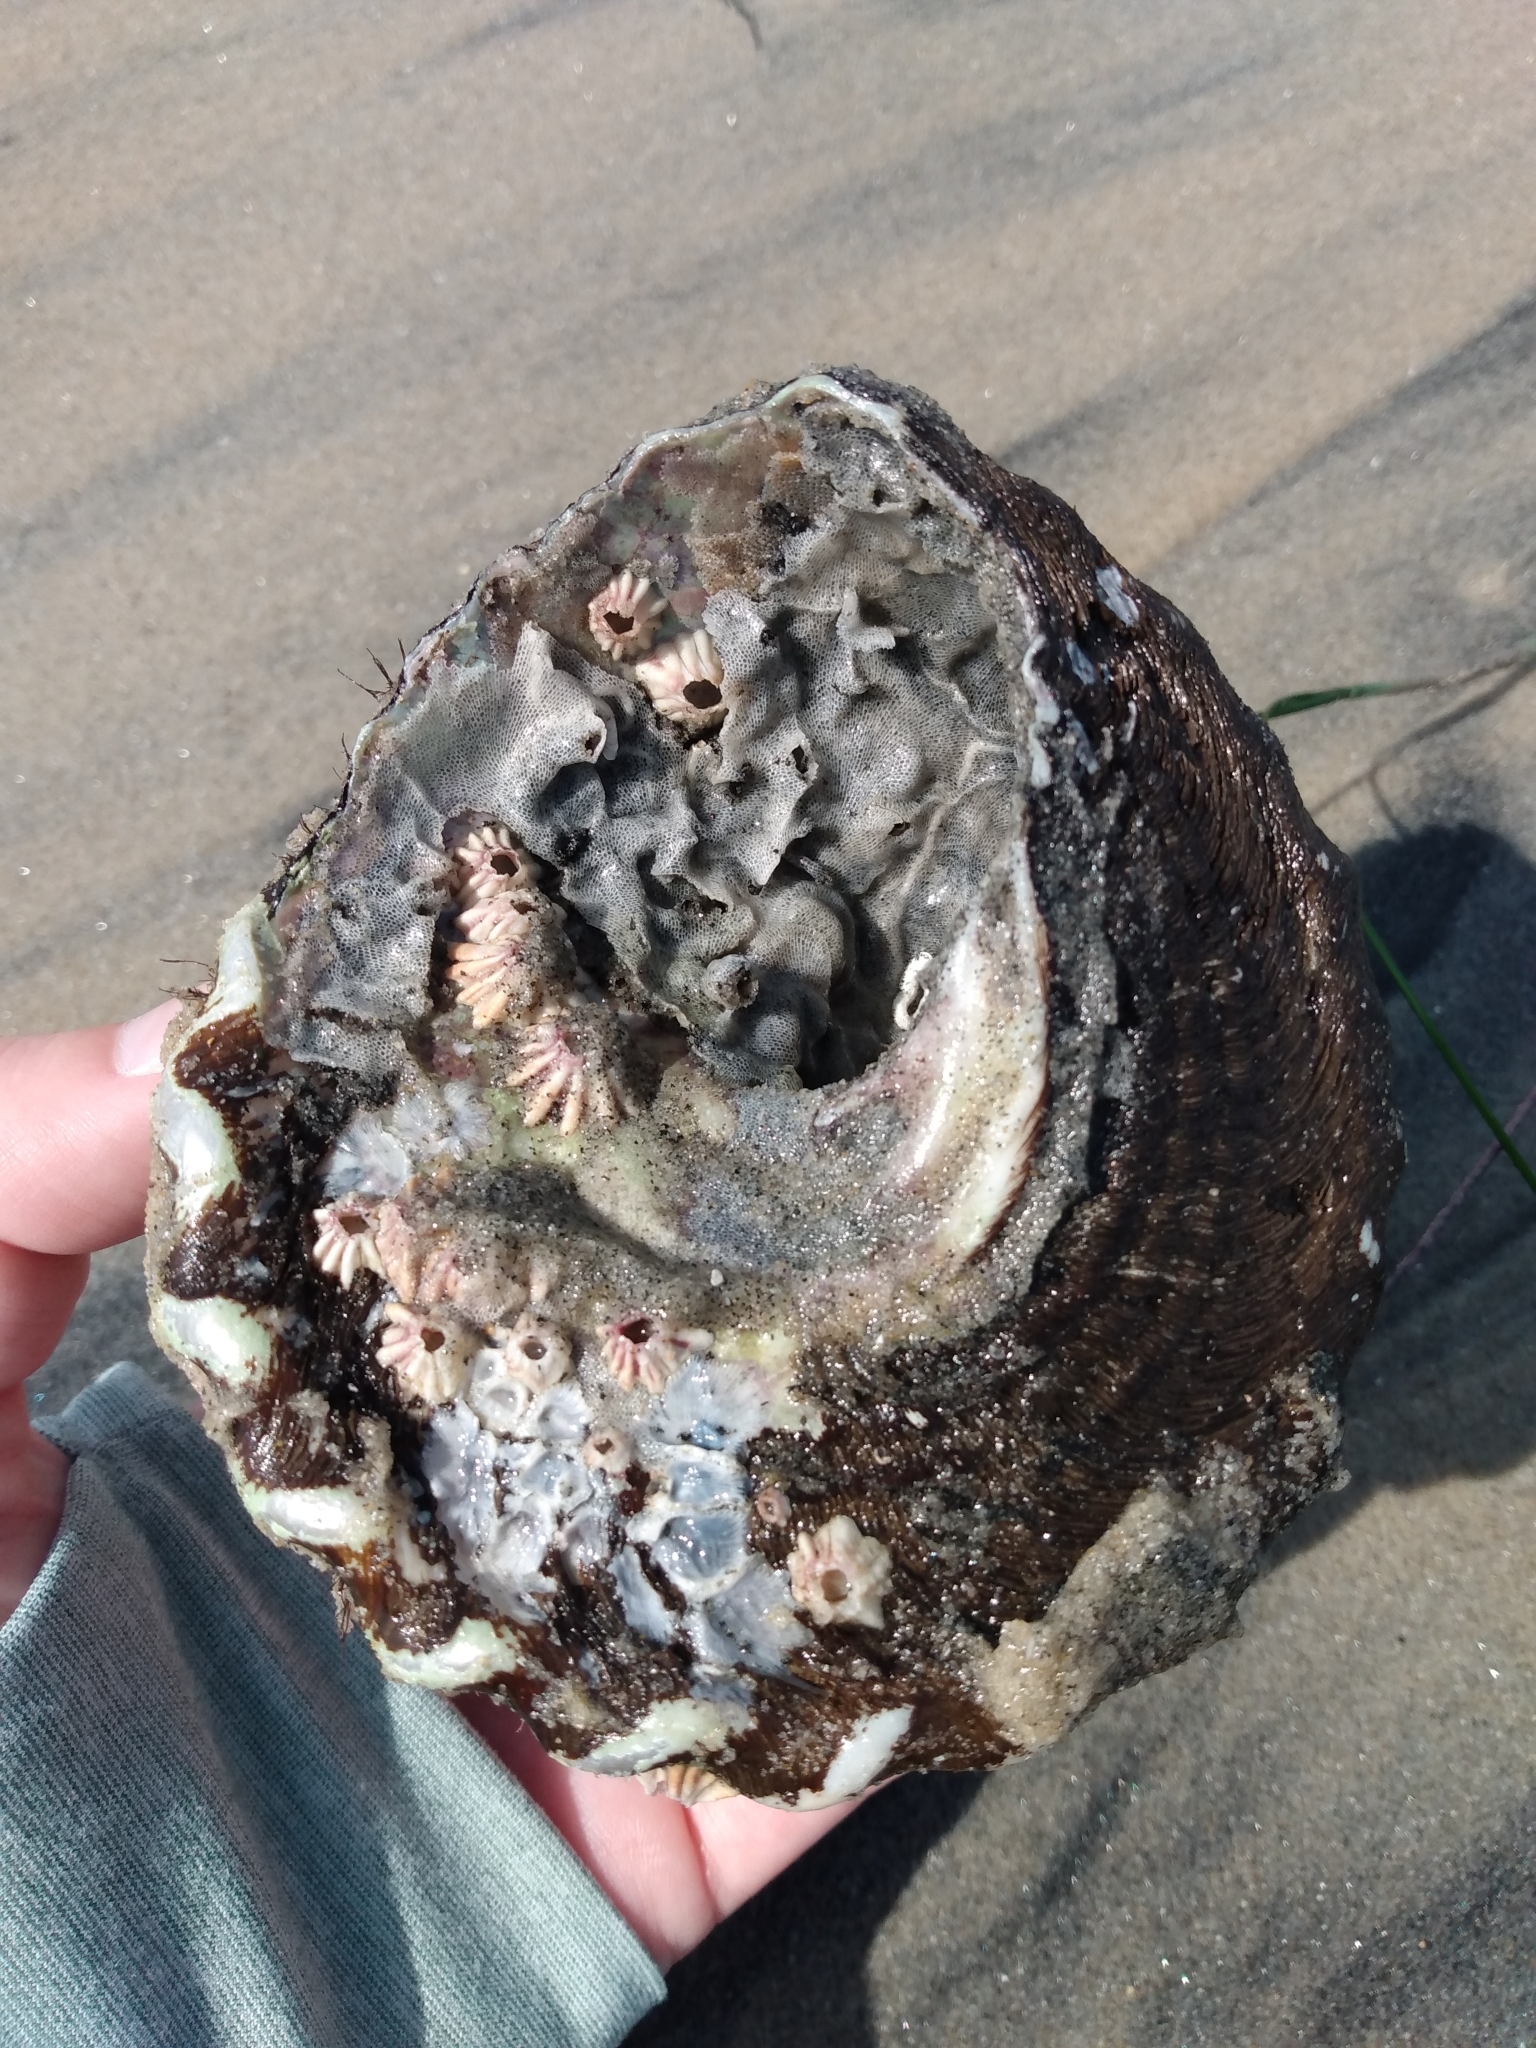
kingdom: Animalia
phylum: Mollusca
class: Gastropoda
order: Trochida
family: Turbinidae
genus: Megastraea
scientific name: Megastraea undosa
